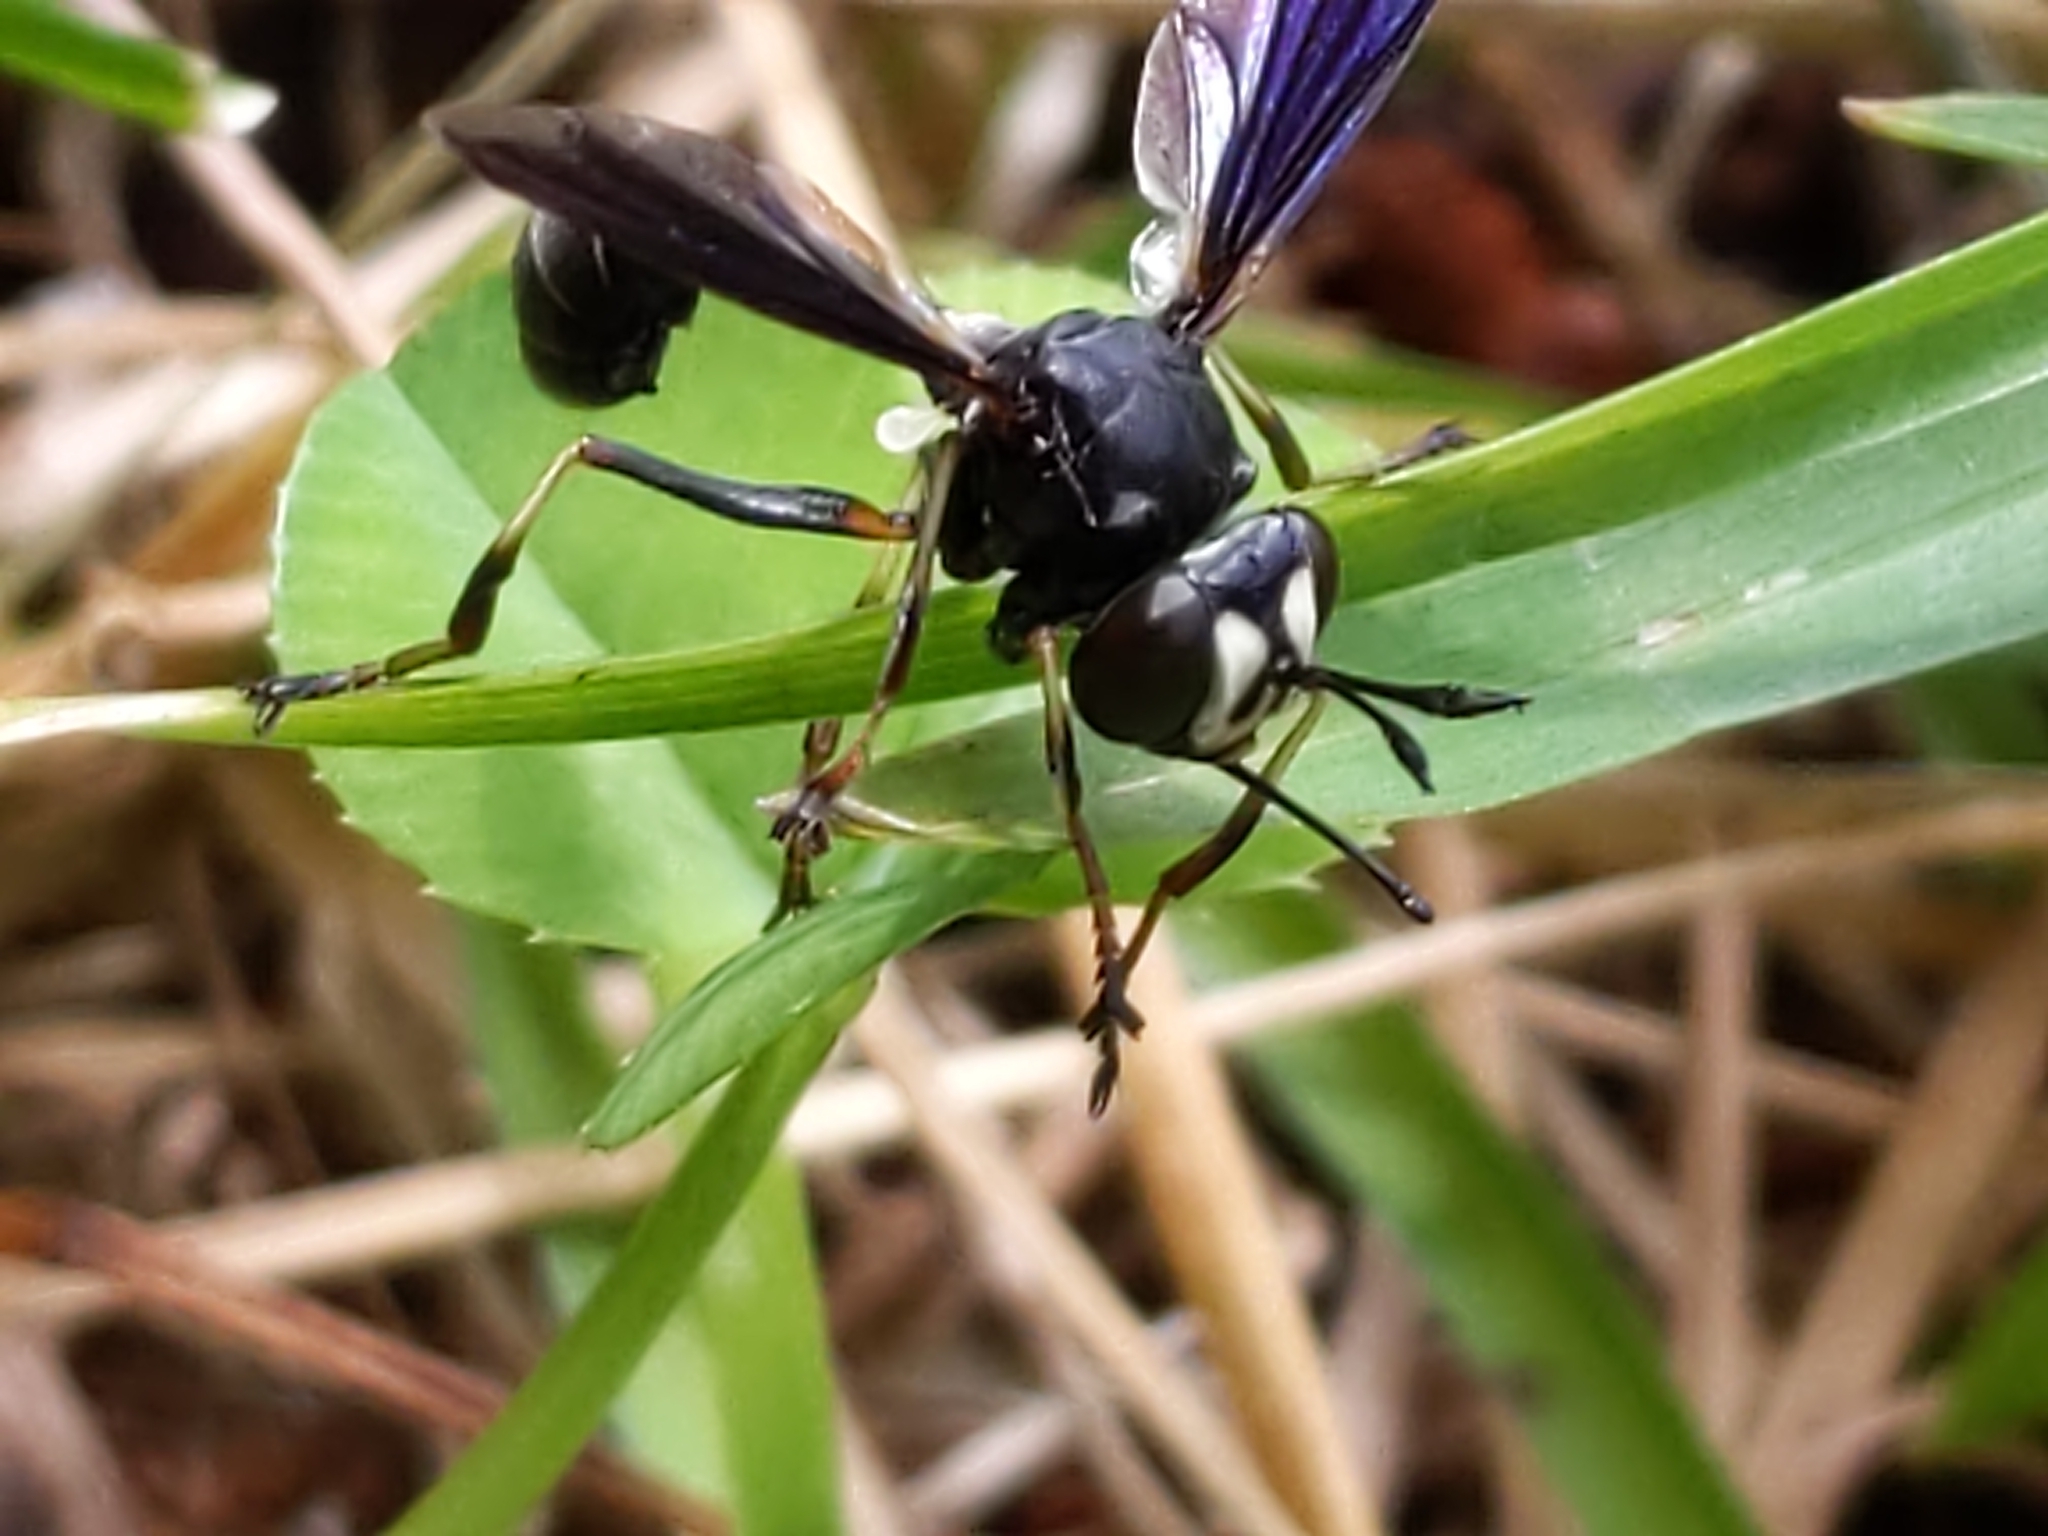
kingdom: Animalia
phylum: Arthropoda
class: Insecta
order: Diptera
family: Conopidae
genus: Physocephala
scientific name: Physocephala tibialis
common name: Common eastern physocephala
